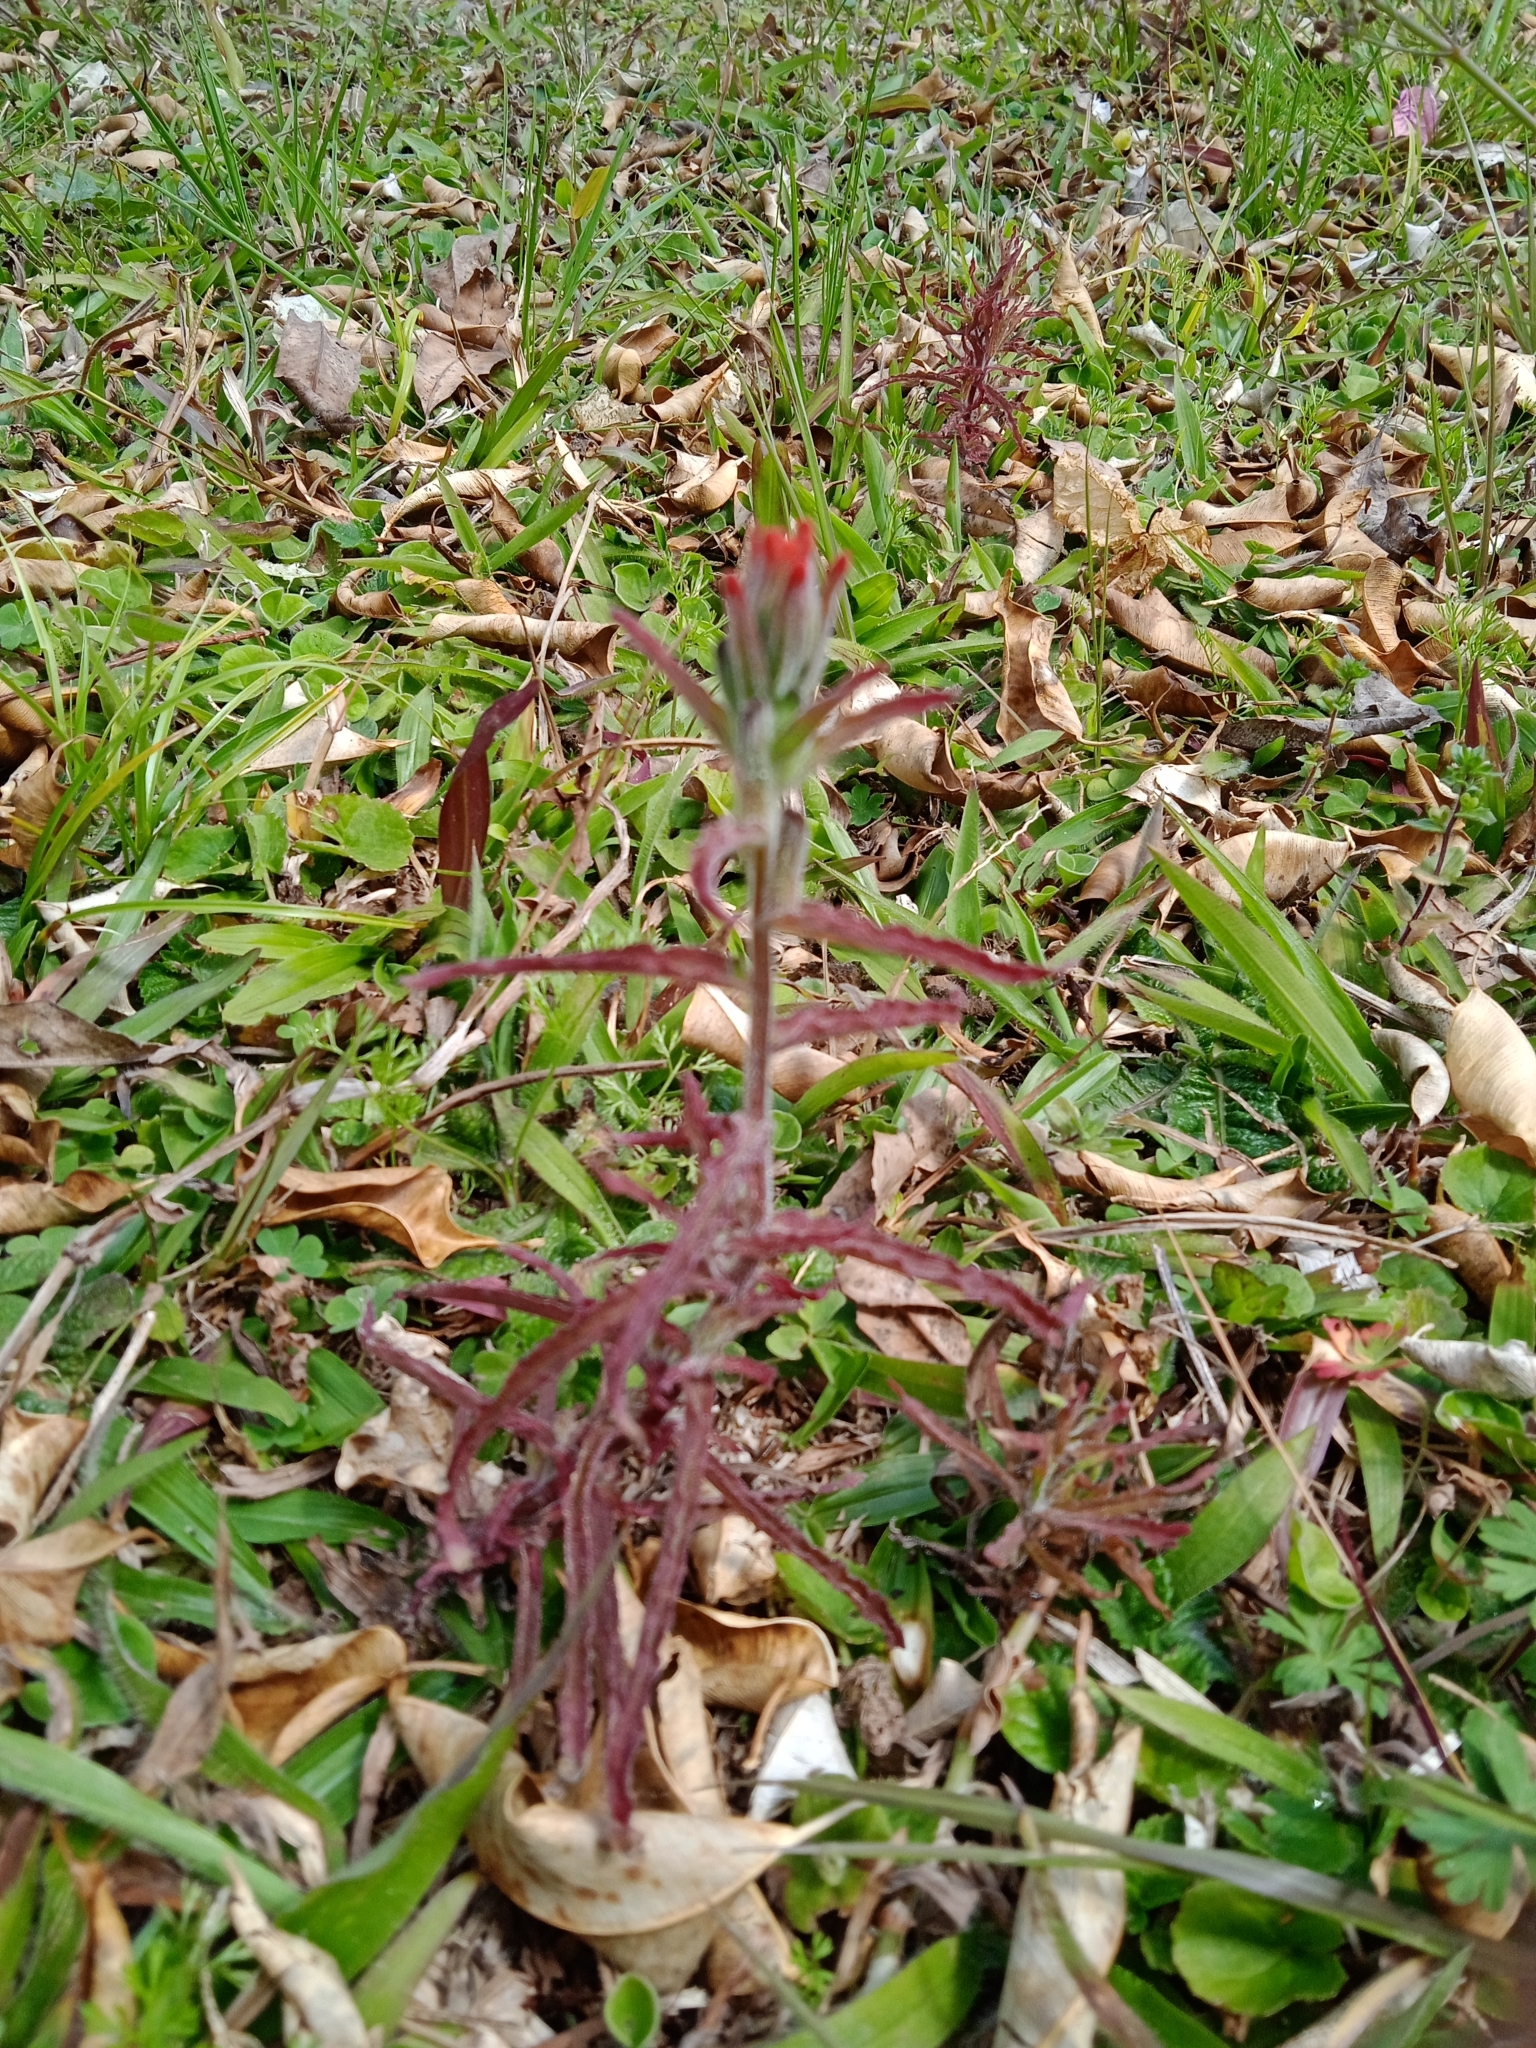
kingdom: Plantae
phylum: Tracheophyta
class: Magnoliopsida
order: Lamiales
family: Orobanchaceae
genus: Castilleja
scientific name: Castilleja arvensis
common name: Indian paintbrush
